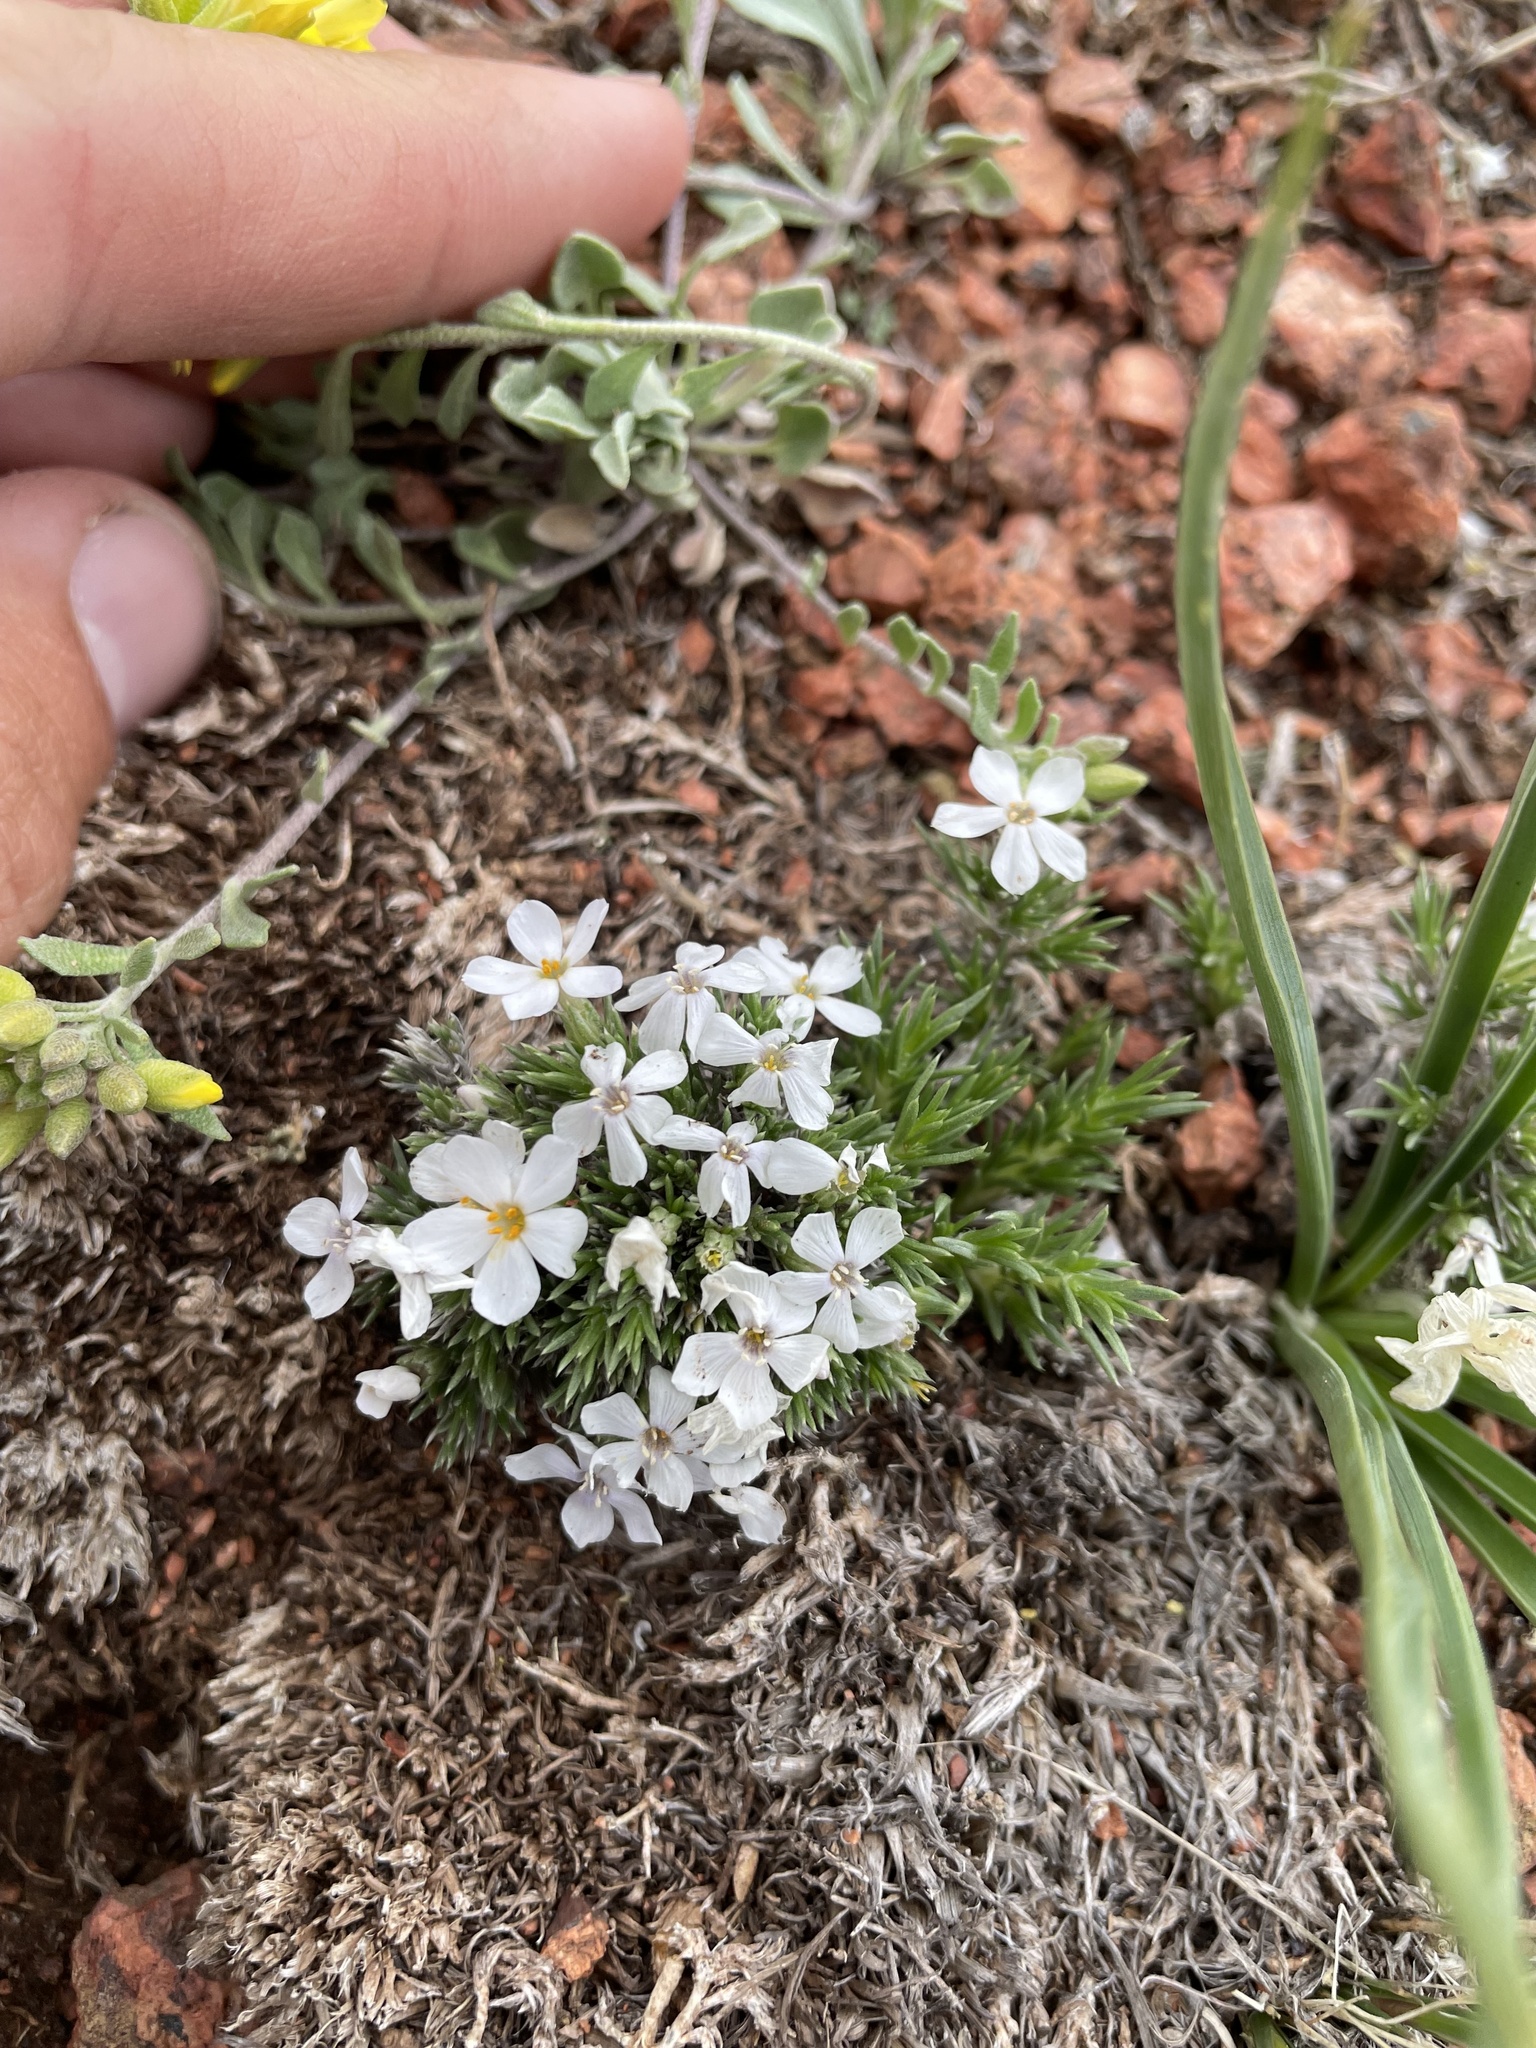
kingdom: Plantae
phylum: Tracheophyta
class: Magnoliopsida
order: Ericales
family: Polemoniaceae
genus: Phlox
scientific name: Phlox hoodii
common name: Moss phlox
